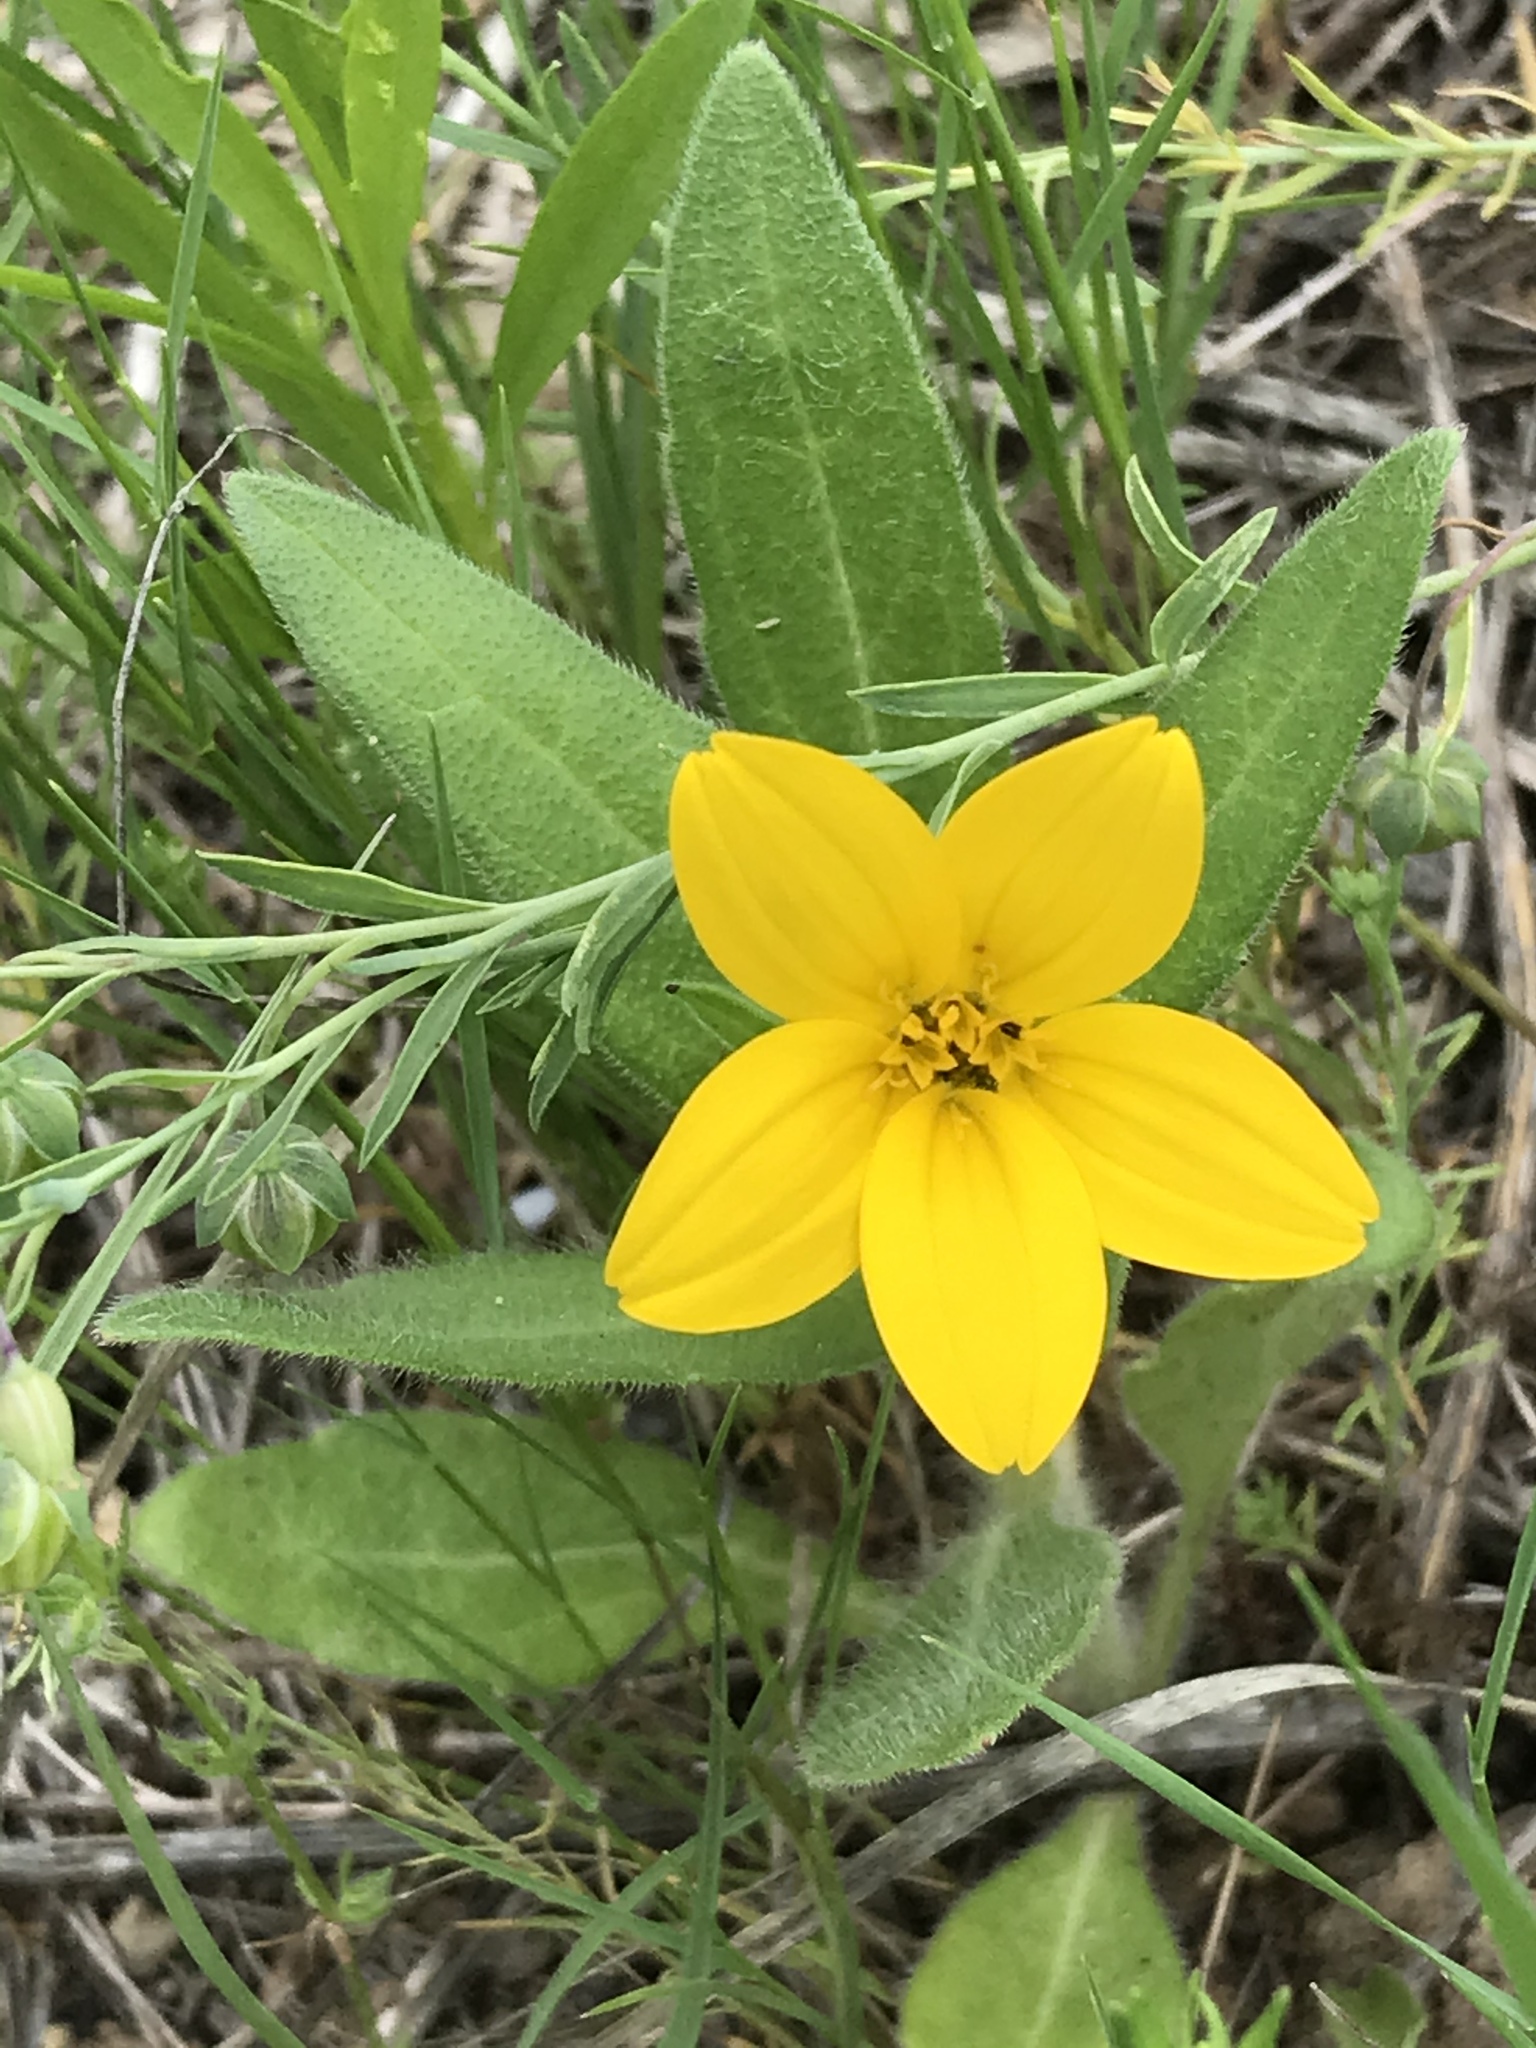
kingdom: Plantae
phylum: Tracheophyta
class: Magnoliopsida
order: Asterales
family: Asteraceae
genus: Lindheimera
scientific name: Lindheimera texana
